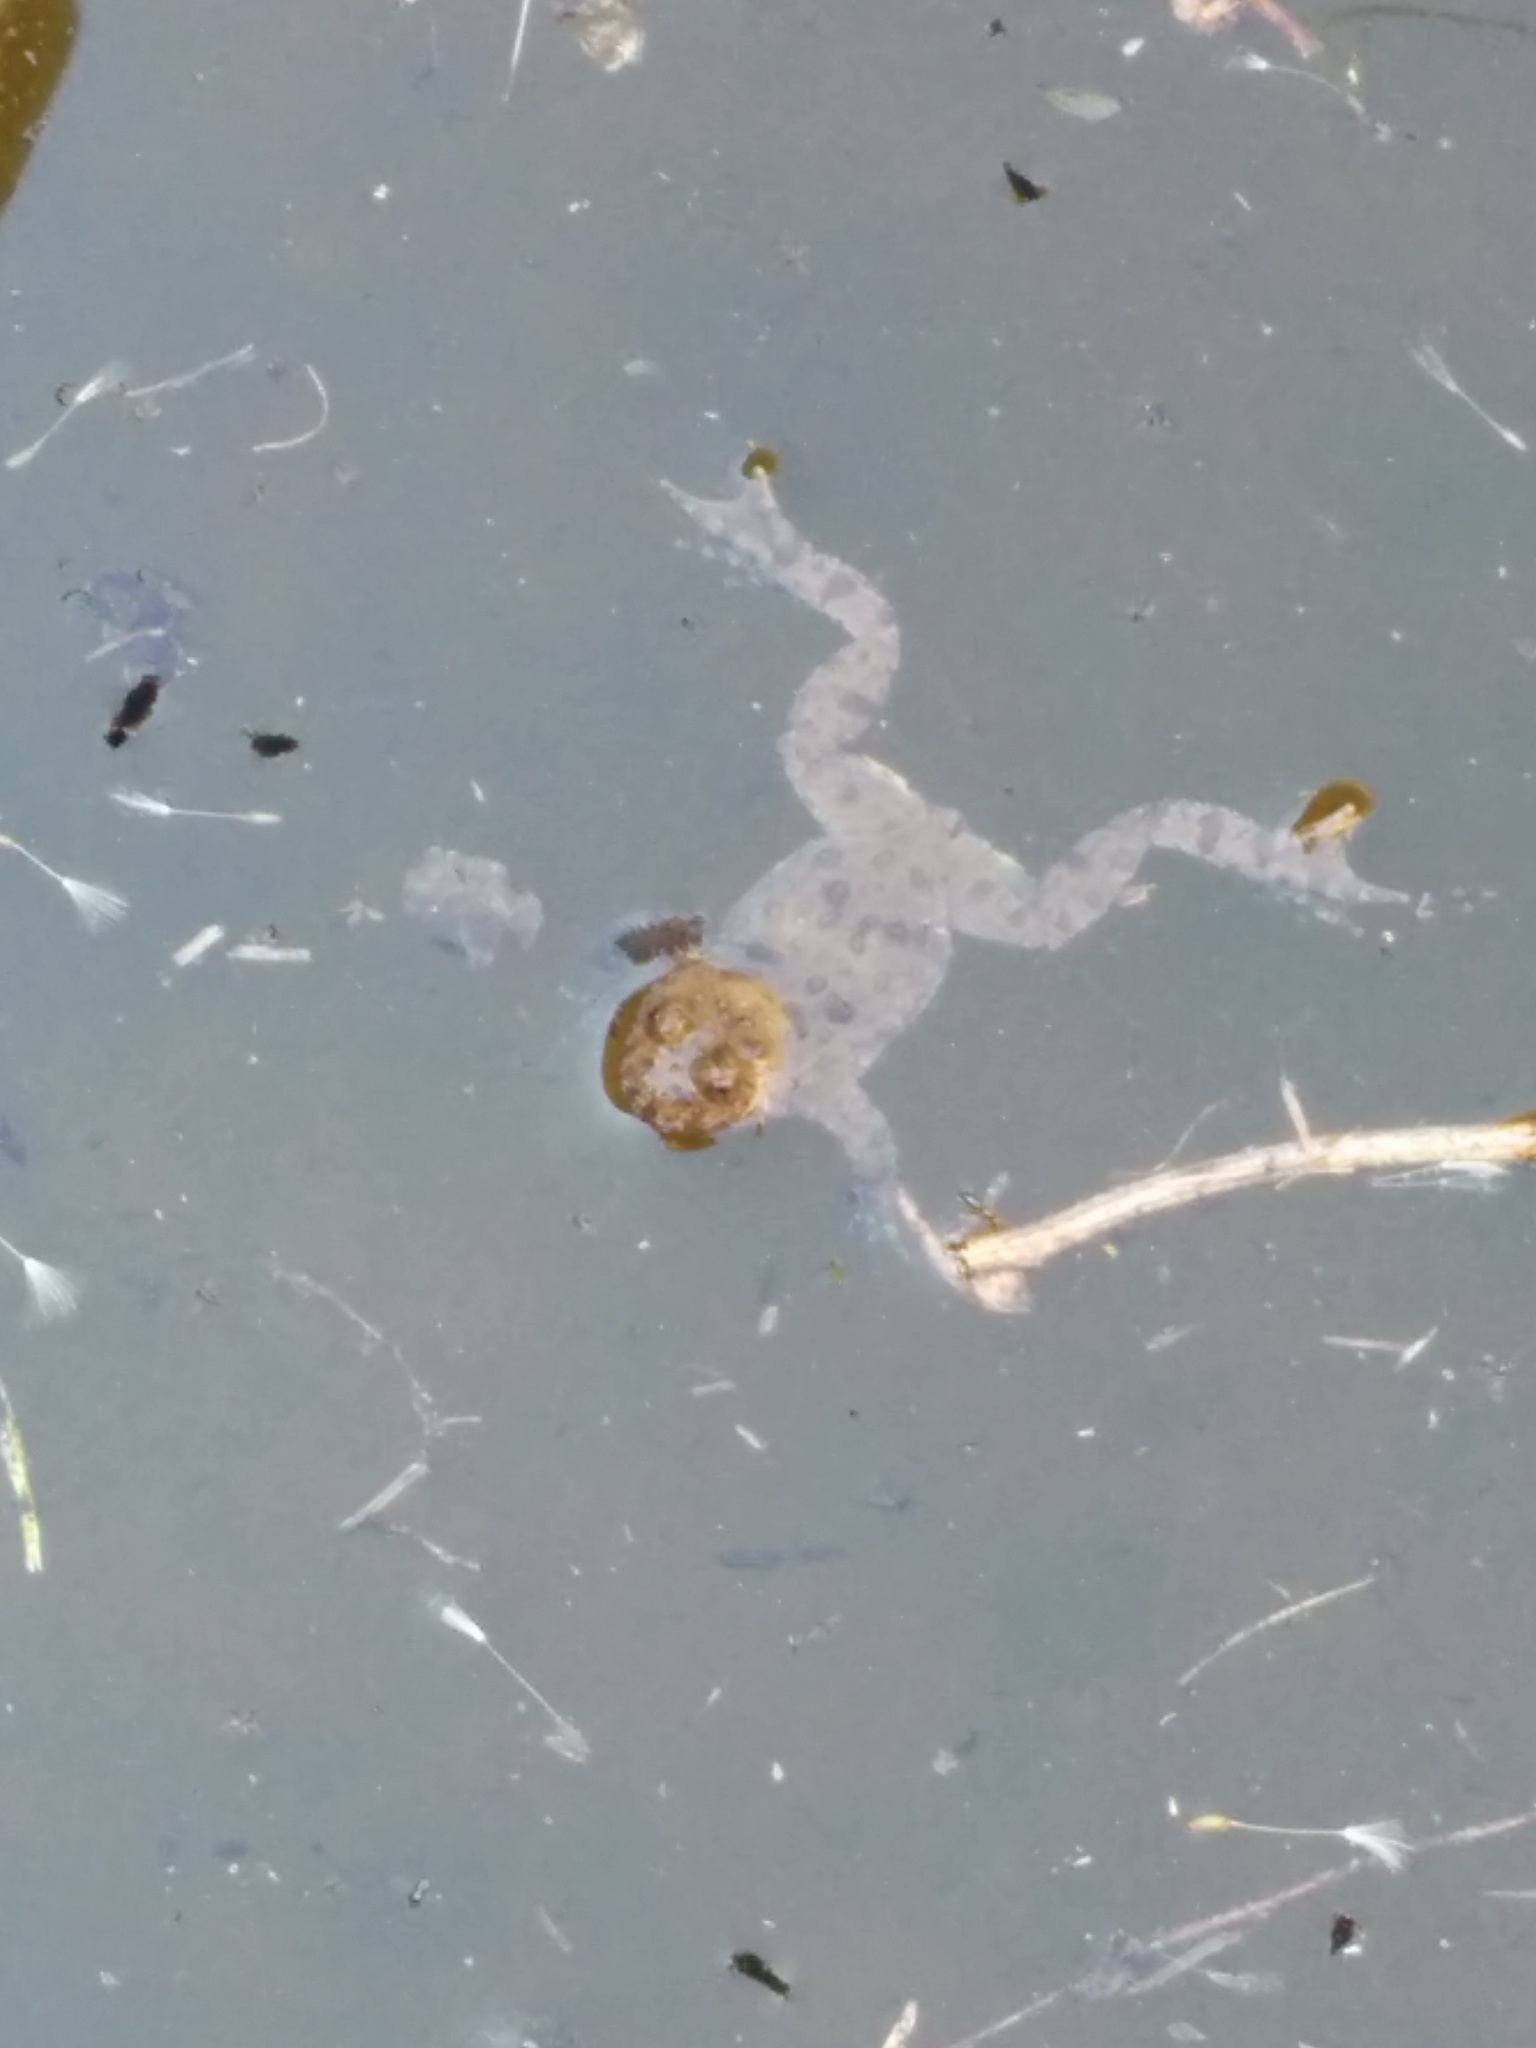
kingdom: Animalia
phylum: Chordata
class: Amphibia
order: Anura
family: Bombinatoridae
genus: Bombina
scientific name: Bombina variegata
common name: Yellow-bellied toad
